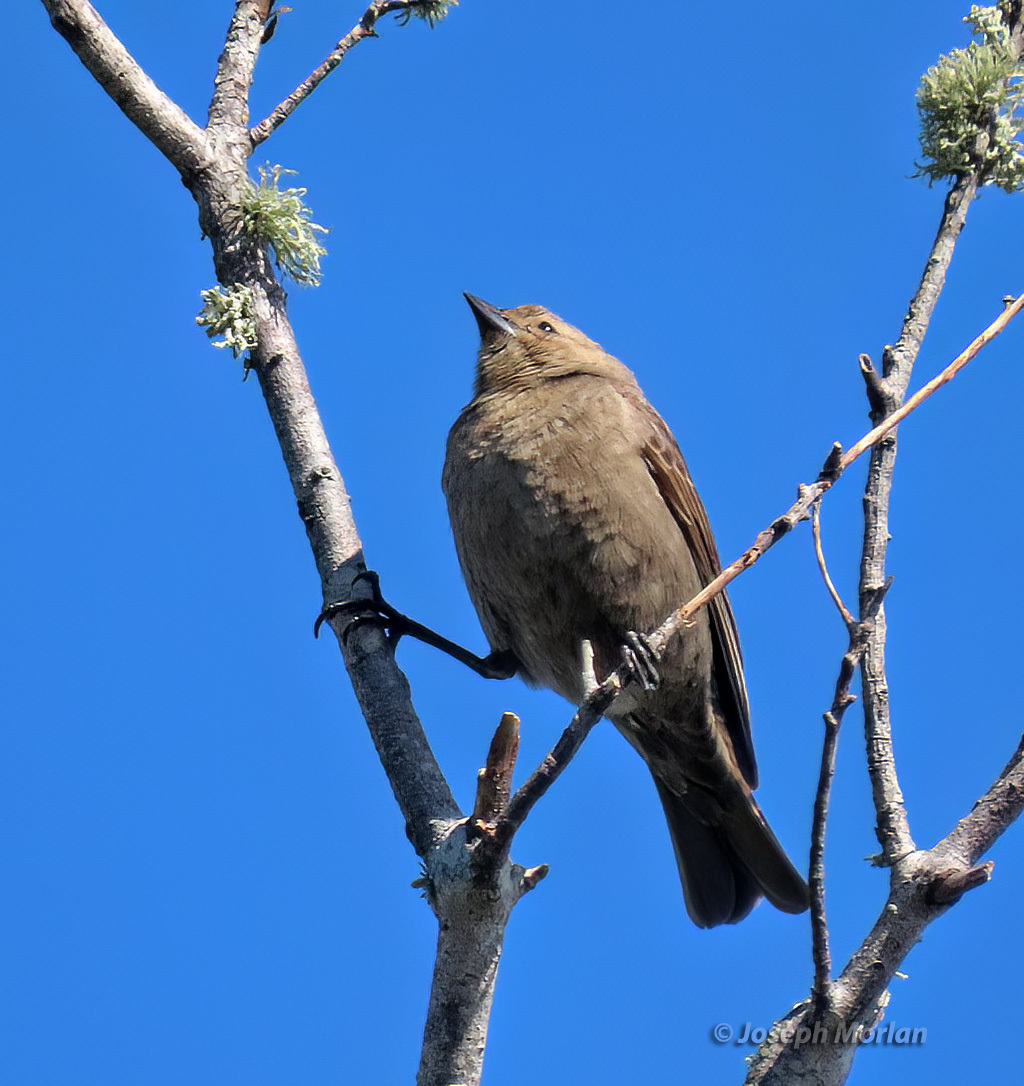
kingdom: Animalia
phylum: Chordata
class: Aves
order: Passeriformes
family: Icteridae
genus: Molothrus
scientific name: Molothrus ater
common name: Brown-headed cowbird
